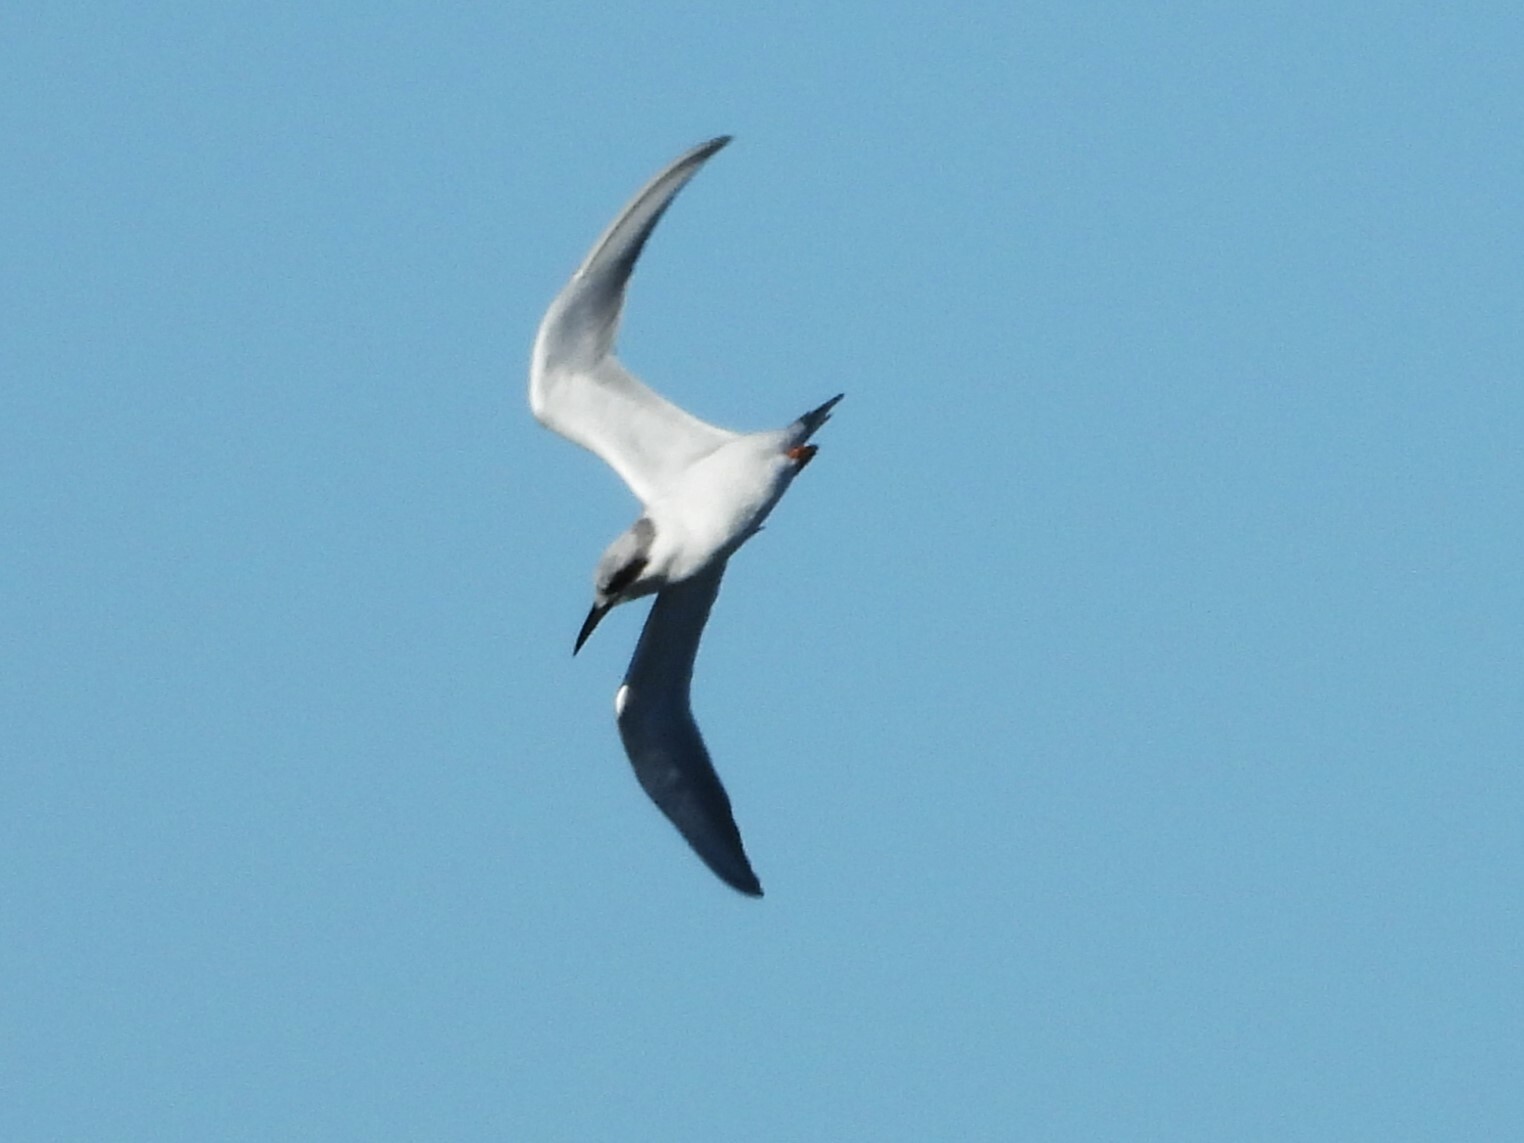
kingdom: Animalia
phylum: Chordata
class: Aves
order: Charadriiformes
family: Laridae
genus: Sterna
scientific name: Sterna forsteri
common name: Forster's tern
